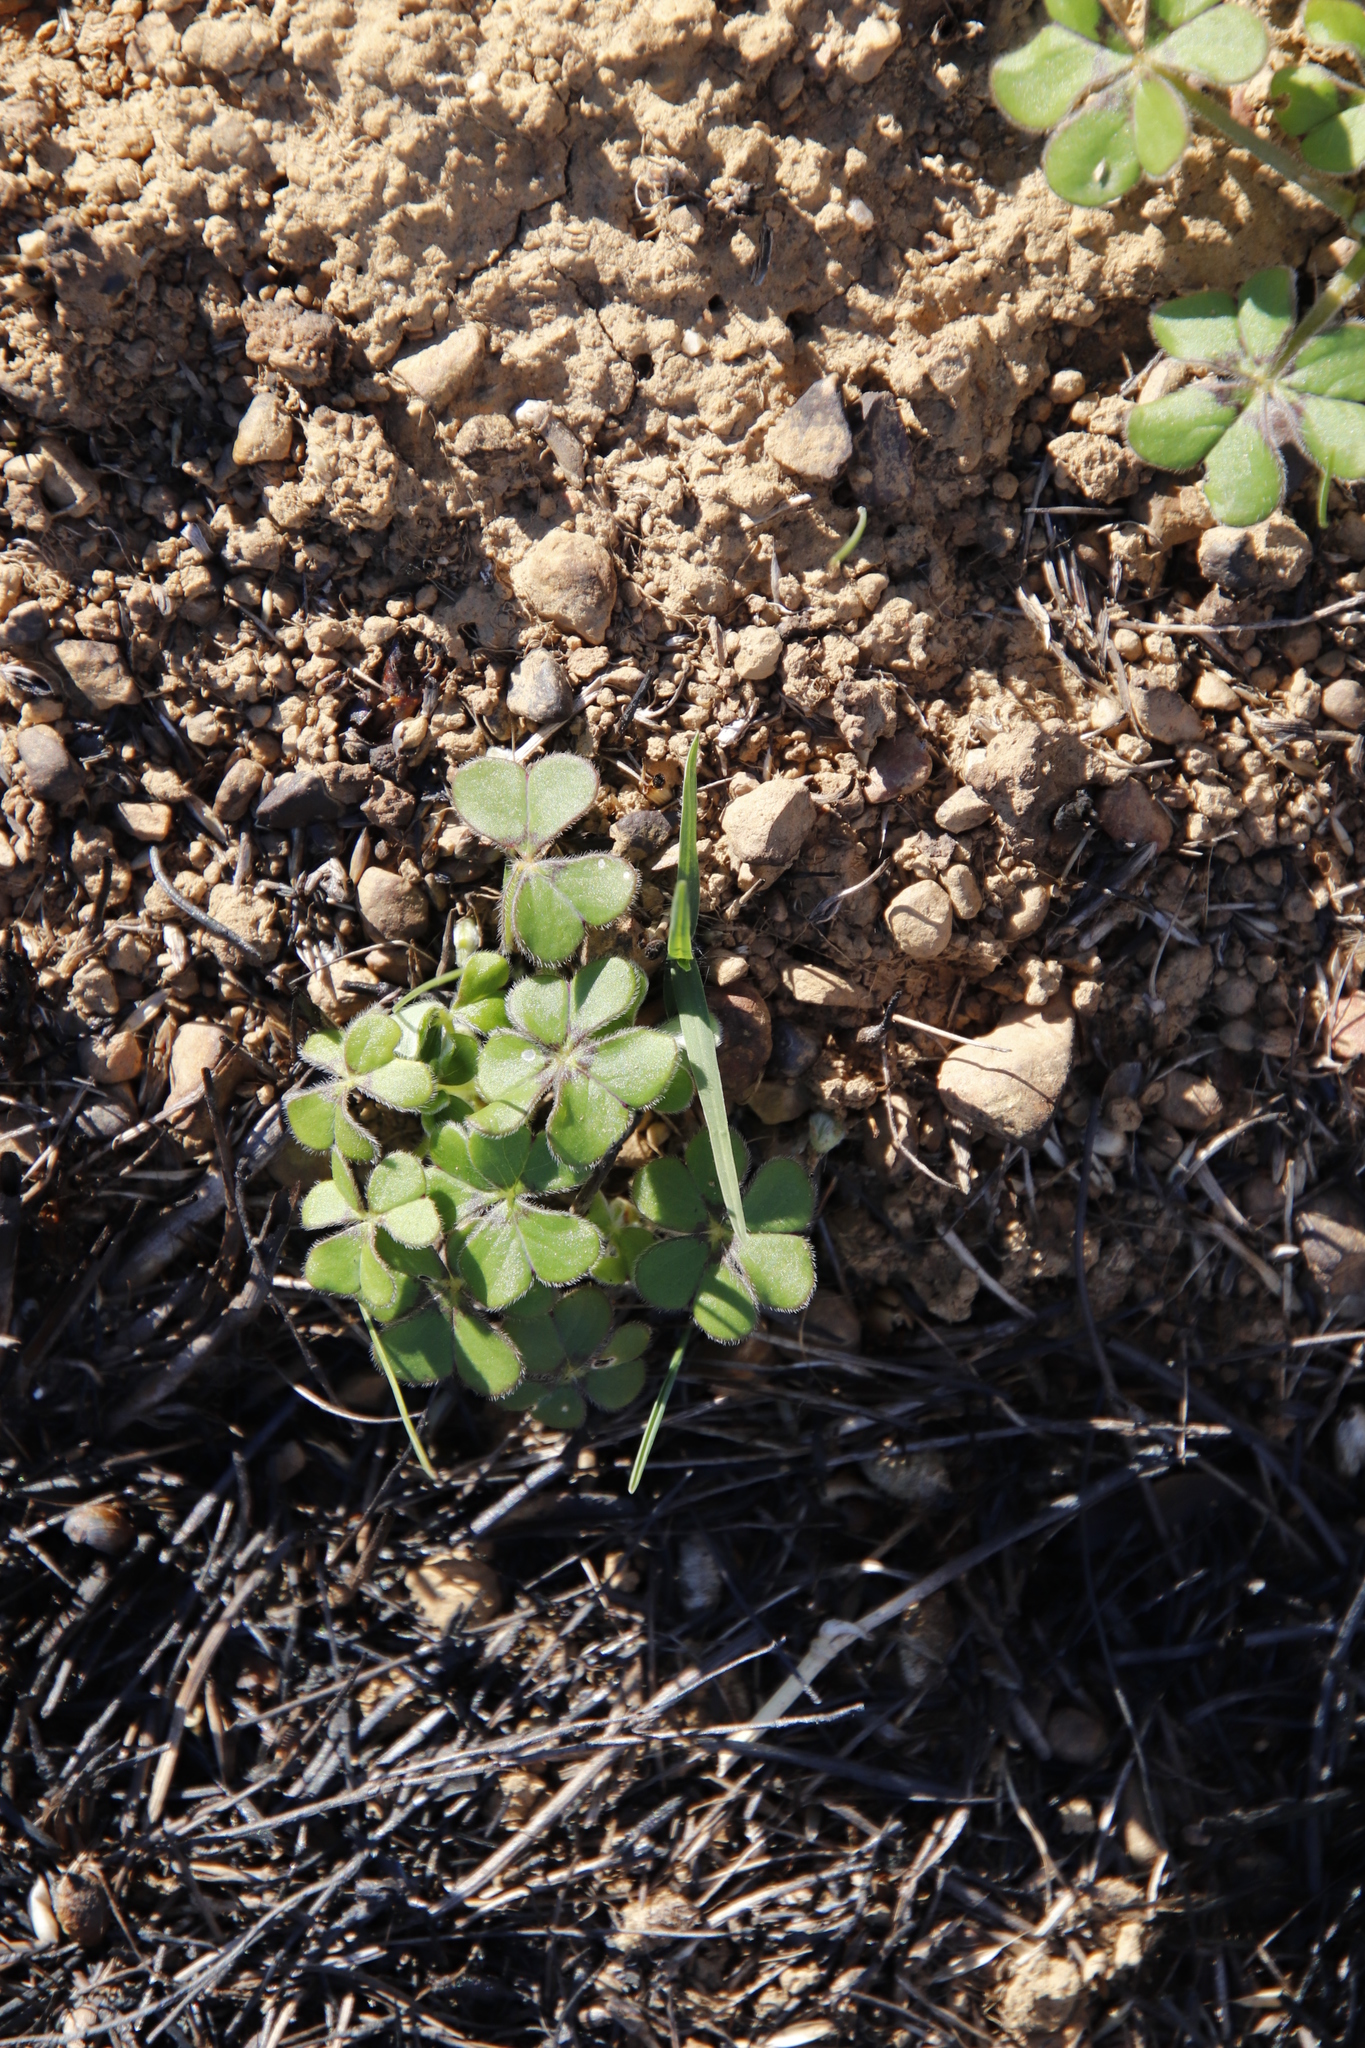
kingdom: Plantae
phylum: Tracheophyta
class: Magnoliopsida
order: Oxalidales
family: Oxalidaceae
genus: Oxalis
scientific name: Oxalis compressa
